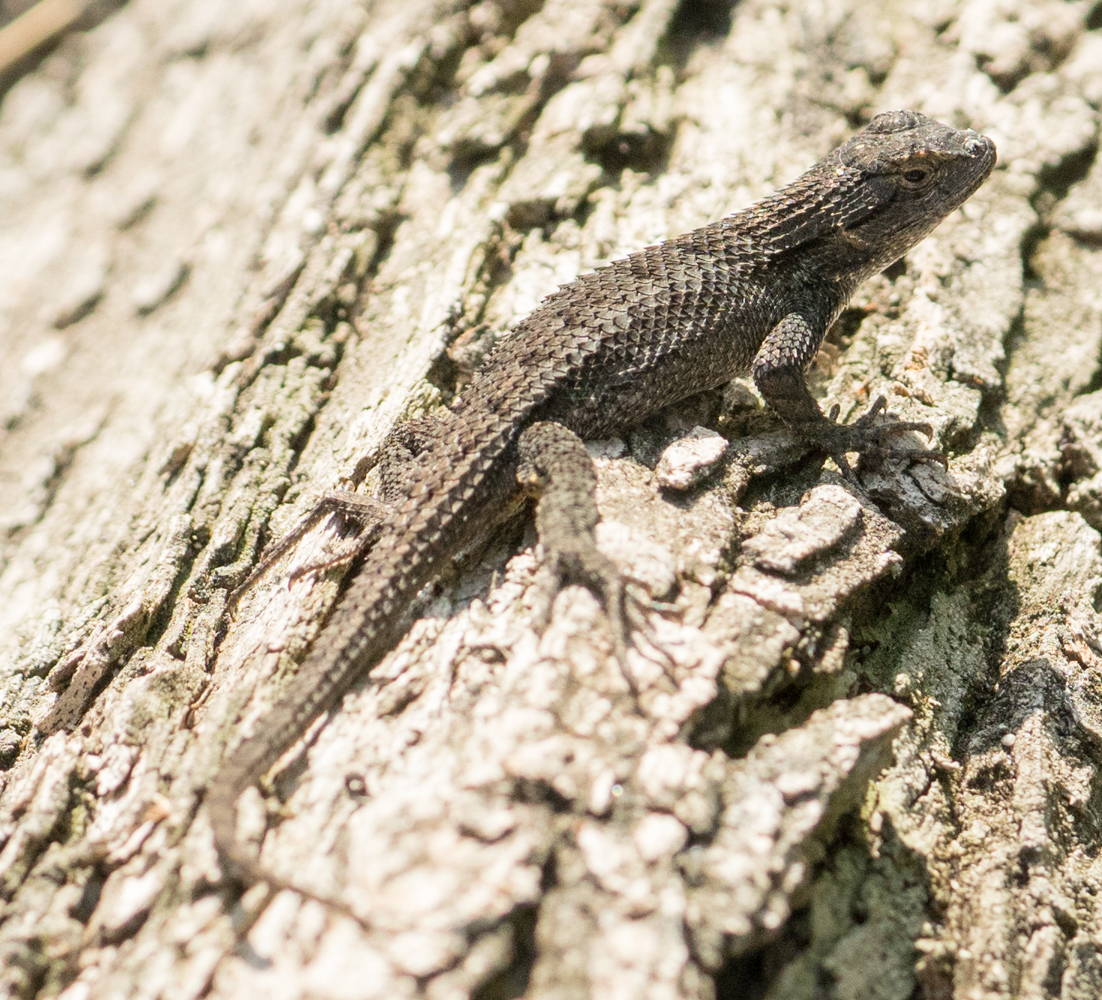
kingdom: Animalia
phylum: Chordata
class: Squamata
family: Phrynosomatidae
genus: Sceloporus
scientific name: Sceloporus occidentalis
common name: Western fence lizard
